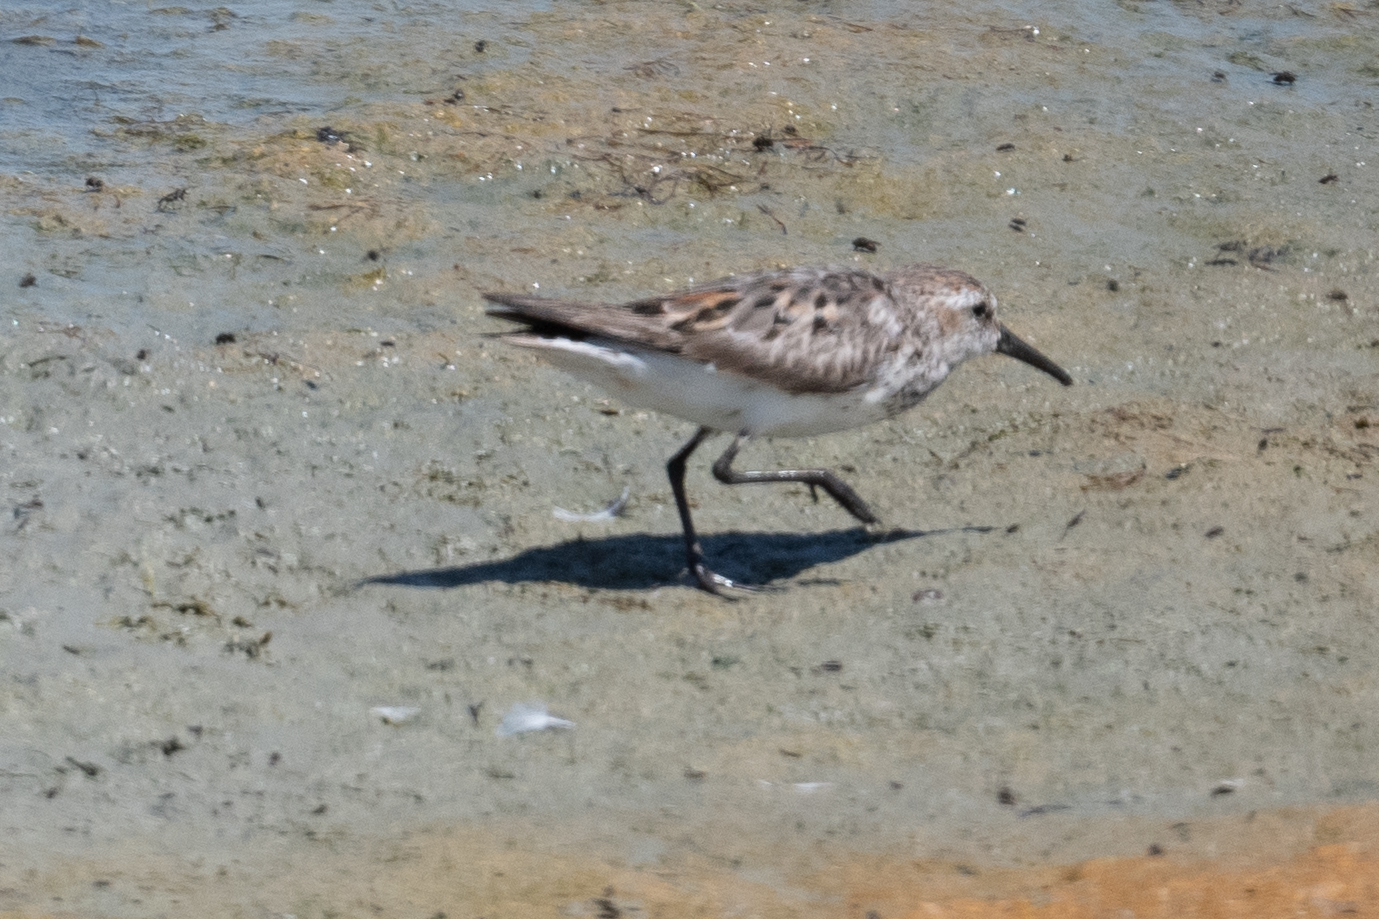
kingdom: Animalia
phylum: Chordata
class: Aves
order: Charadriiformes
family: Scolopacidae
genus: Calidris
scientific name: Calidris mauri
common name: Western sandpiper
